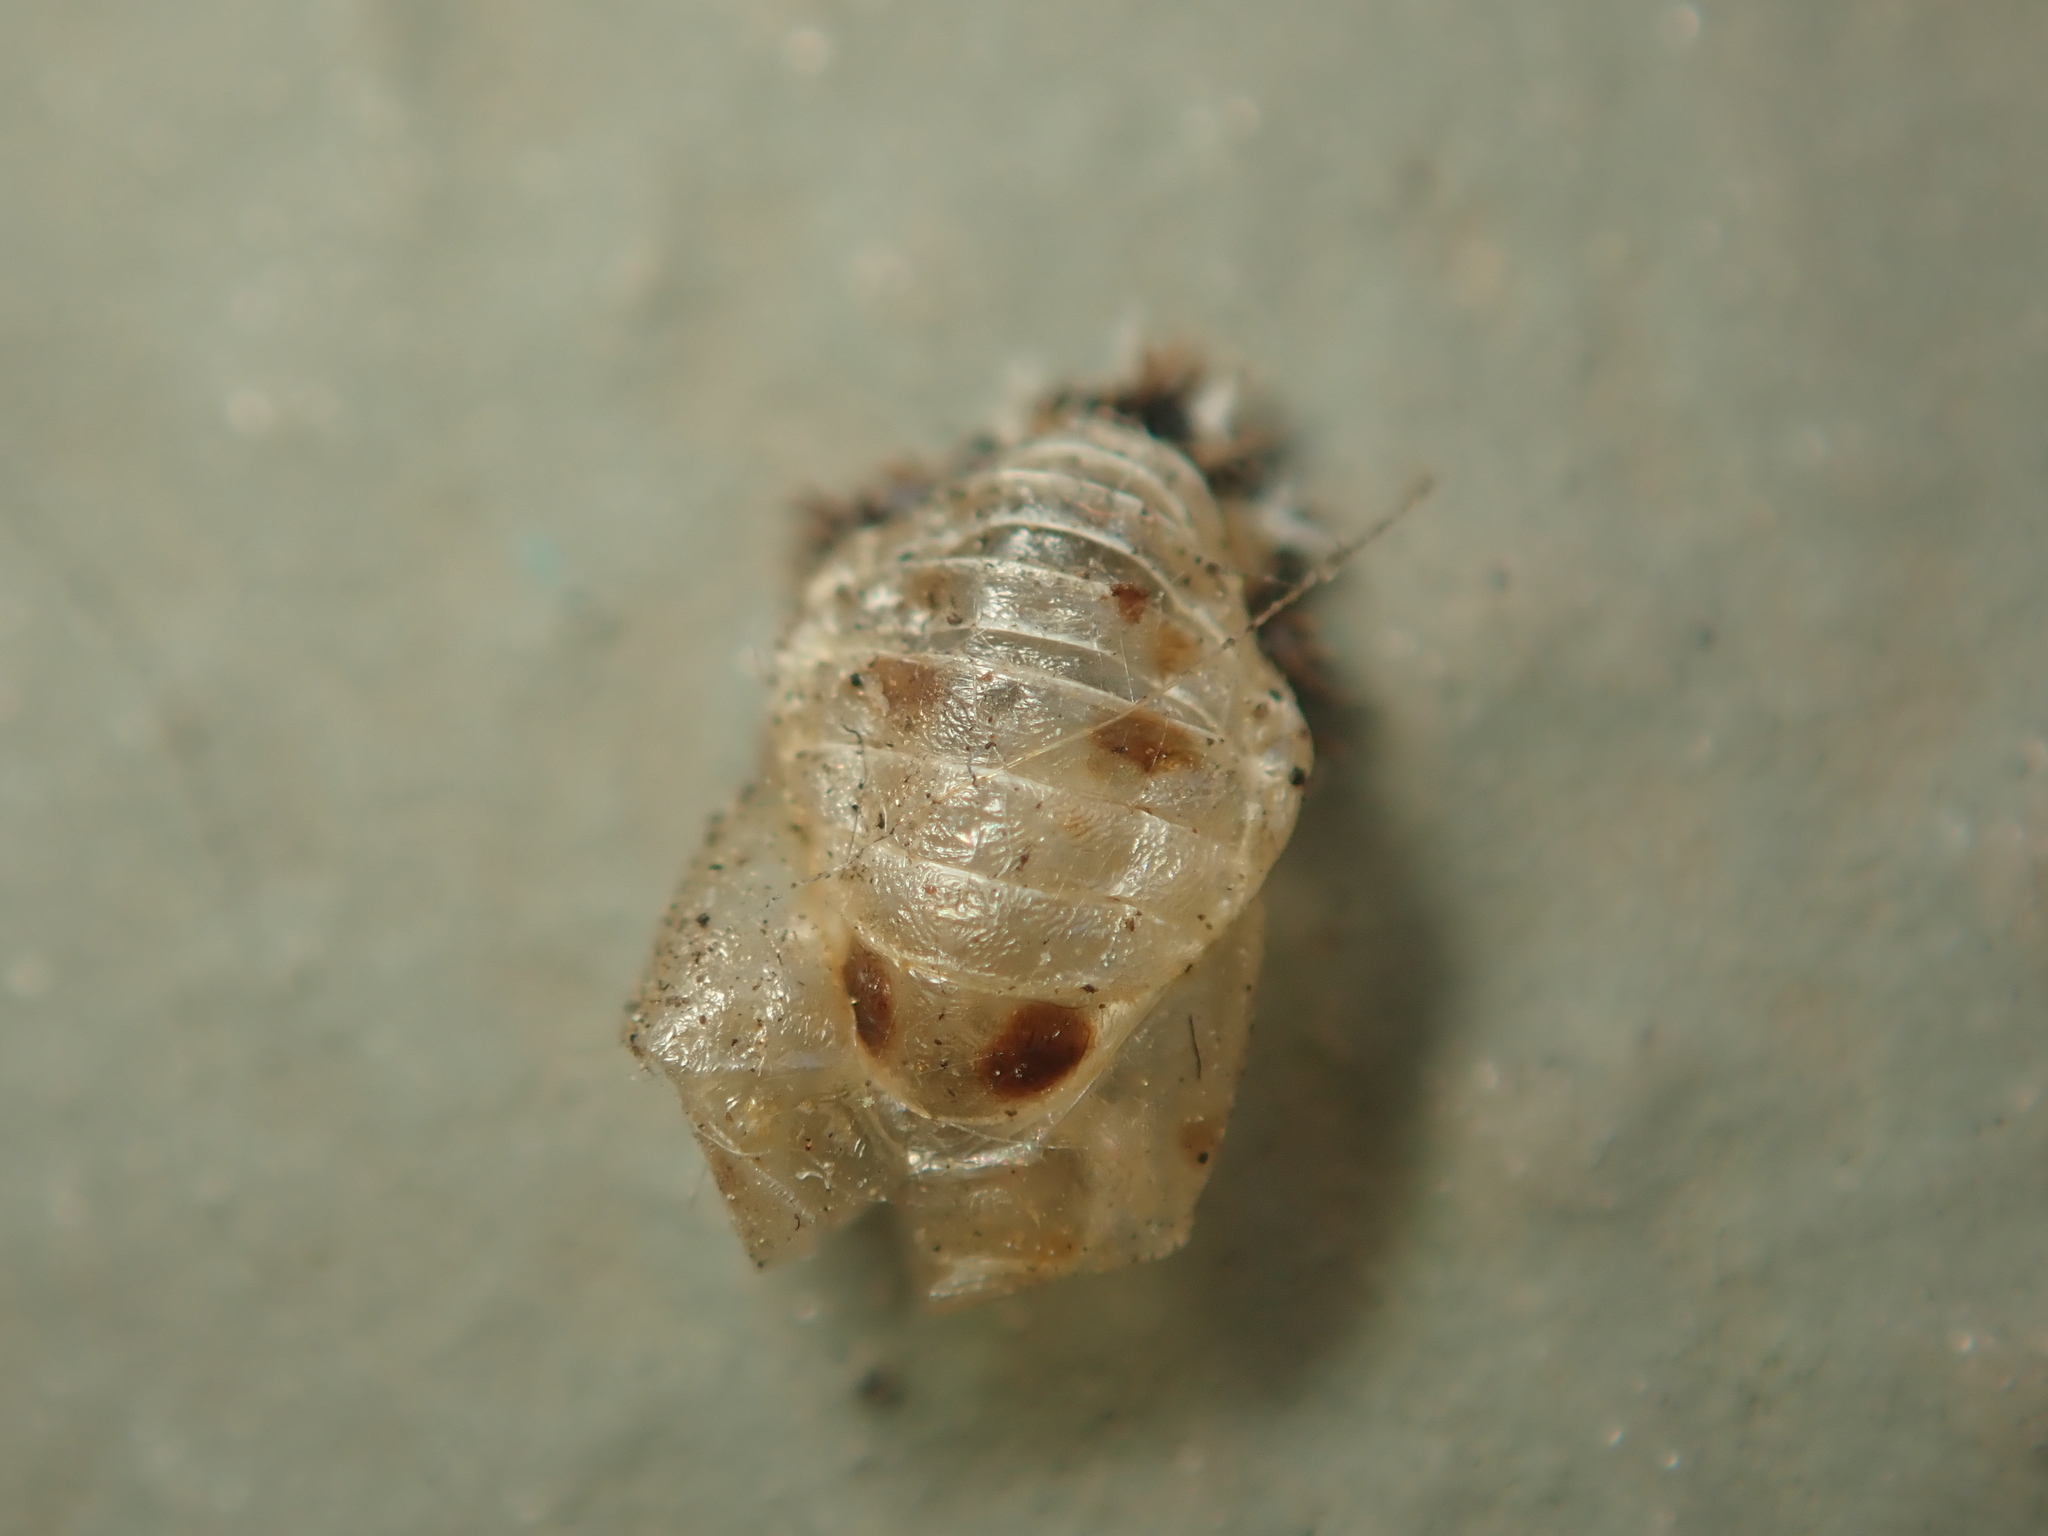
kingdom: Animalia
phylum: Arthropoda
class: Insecta
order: Coleoptera
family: Coccinellidae
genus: Harmonia
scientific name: Harmonia axyridis
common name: Harlequin ladybird
